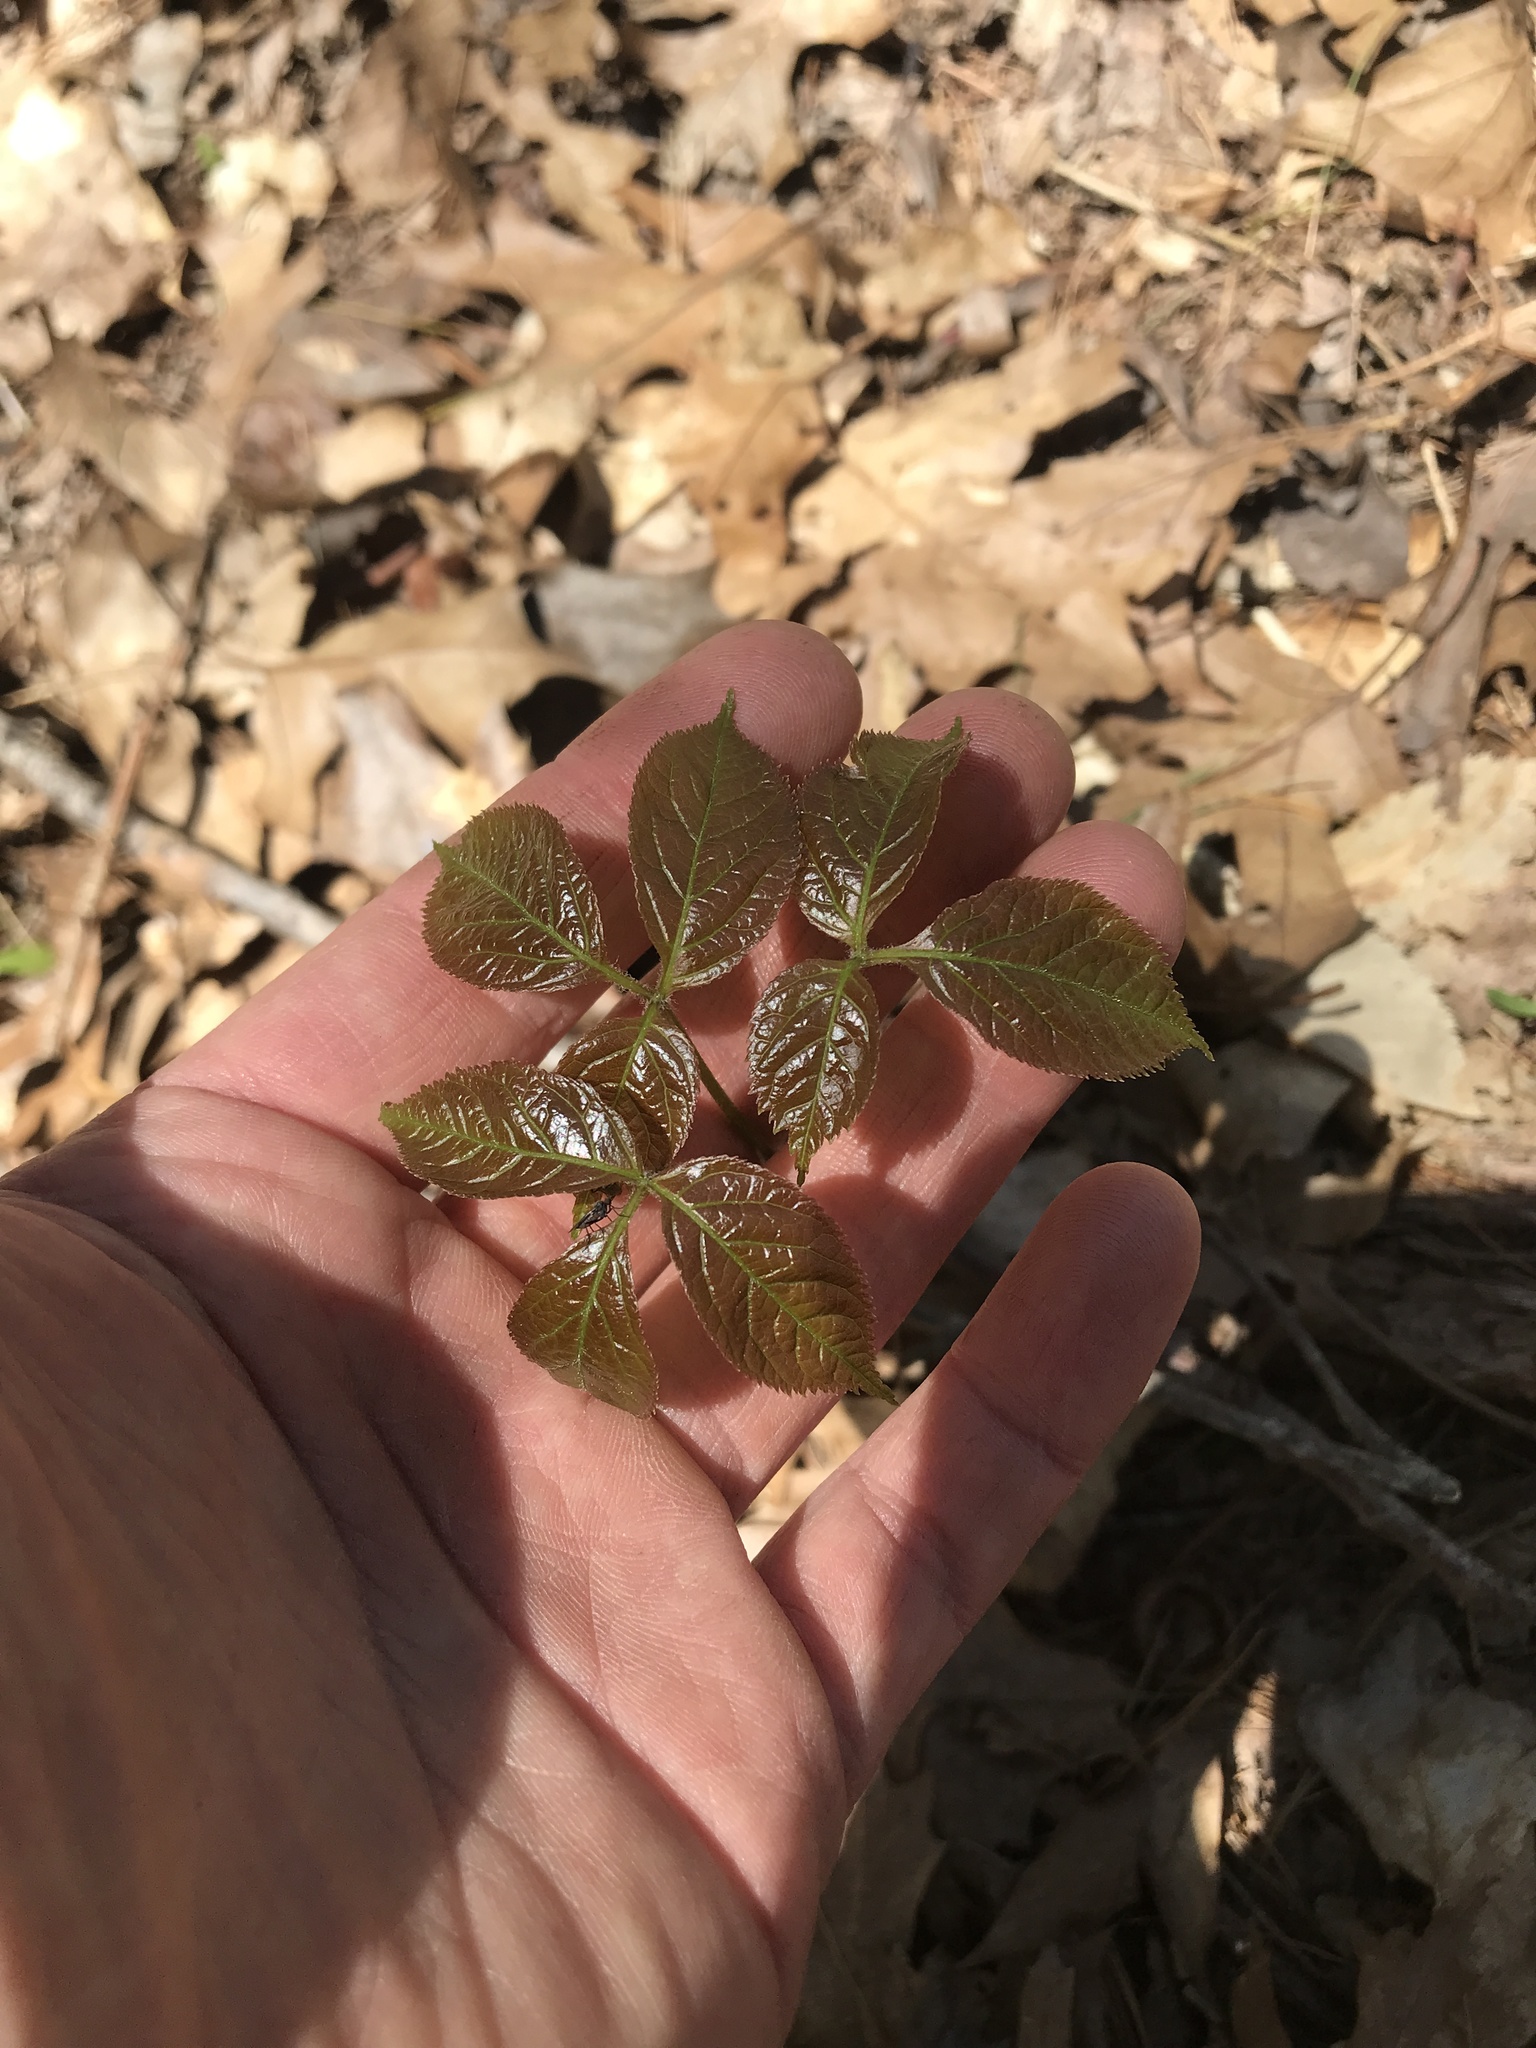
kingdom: Plantae
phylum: Tracheophyta
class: Magnoliopsida
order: Apiales
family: Araliaceae
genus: Aralia
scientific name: Aralia nudicaulis
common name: Wild sarsaparilla
